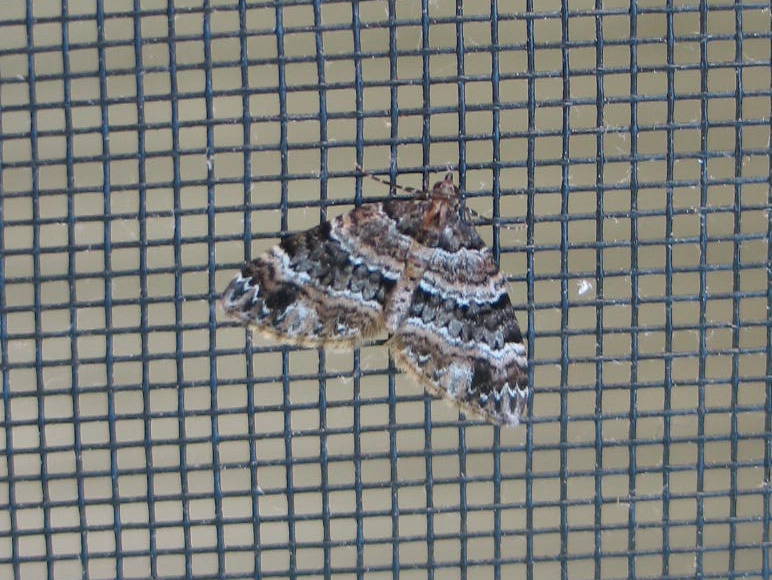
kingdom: Animalia
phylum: Arthropoda
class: Insecta
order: Lepidoptera
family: Geometridae
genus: Martania
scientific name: Martania
